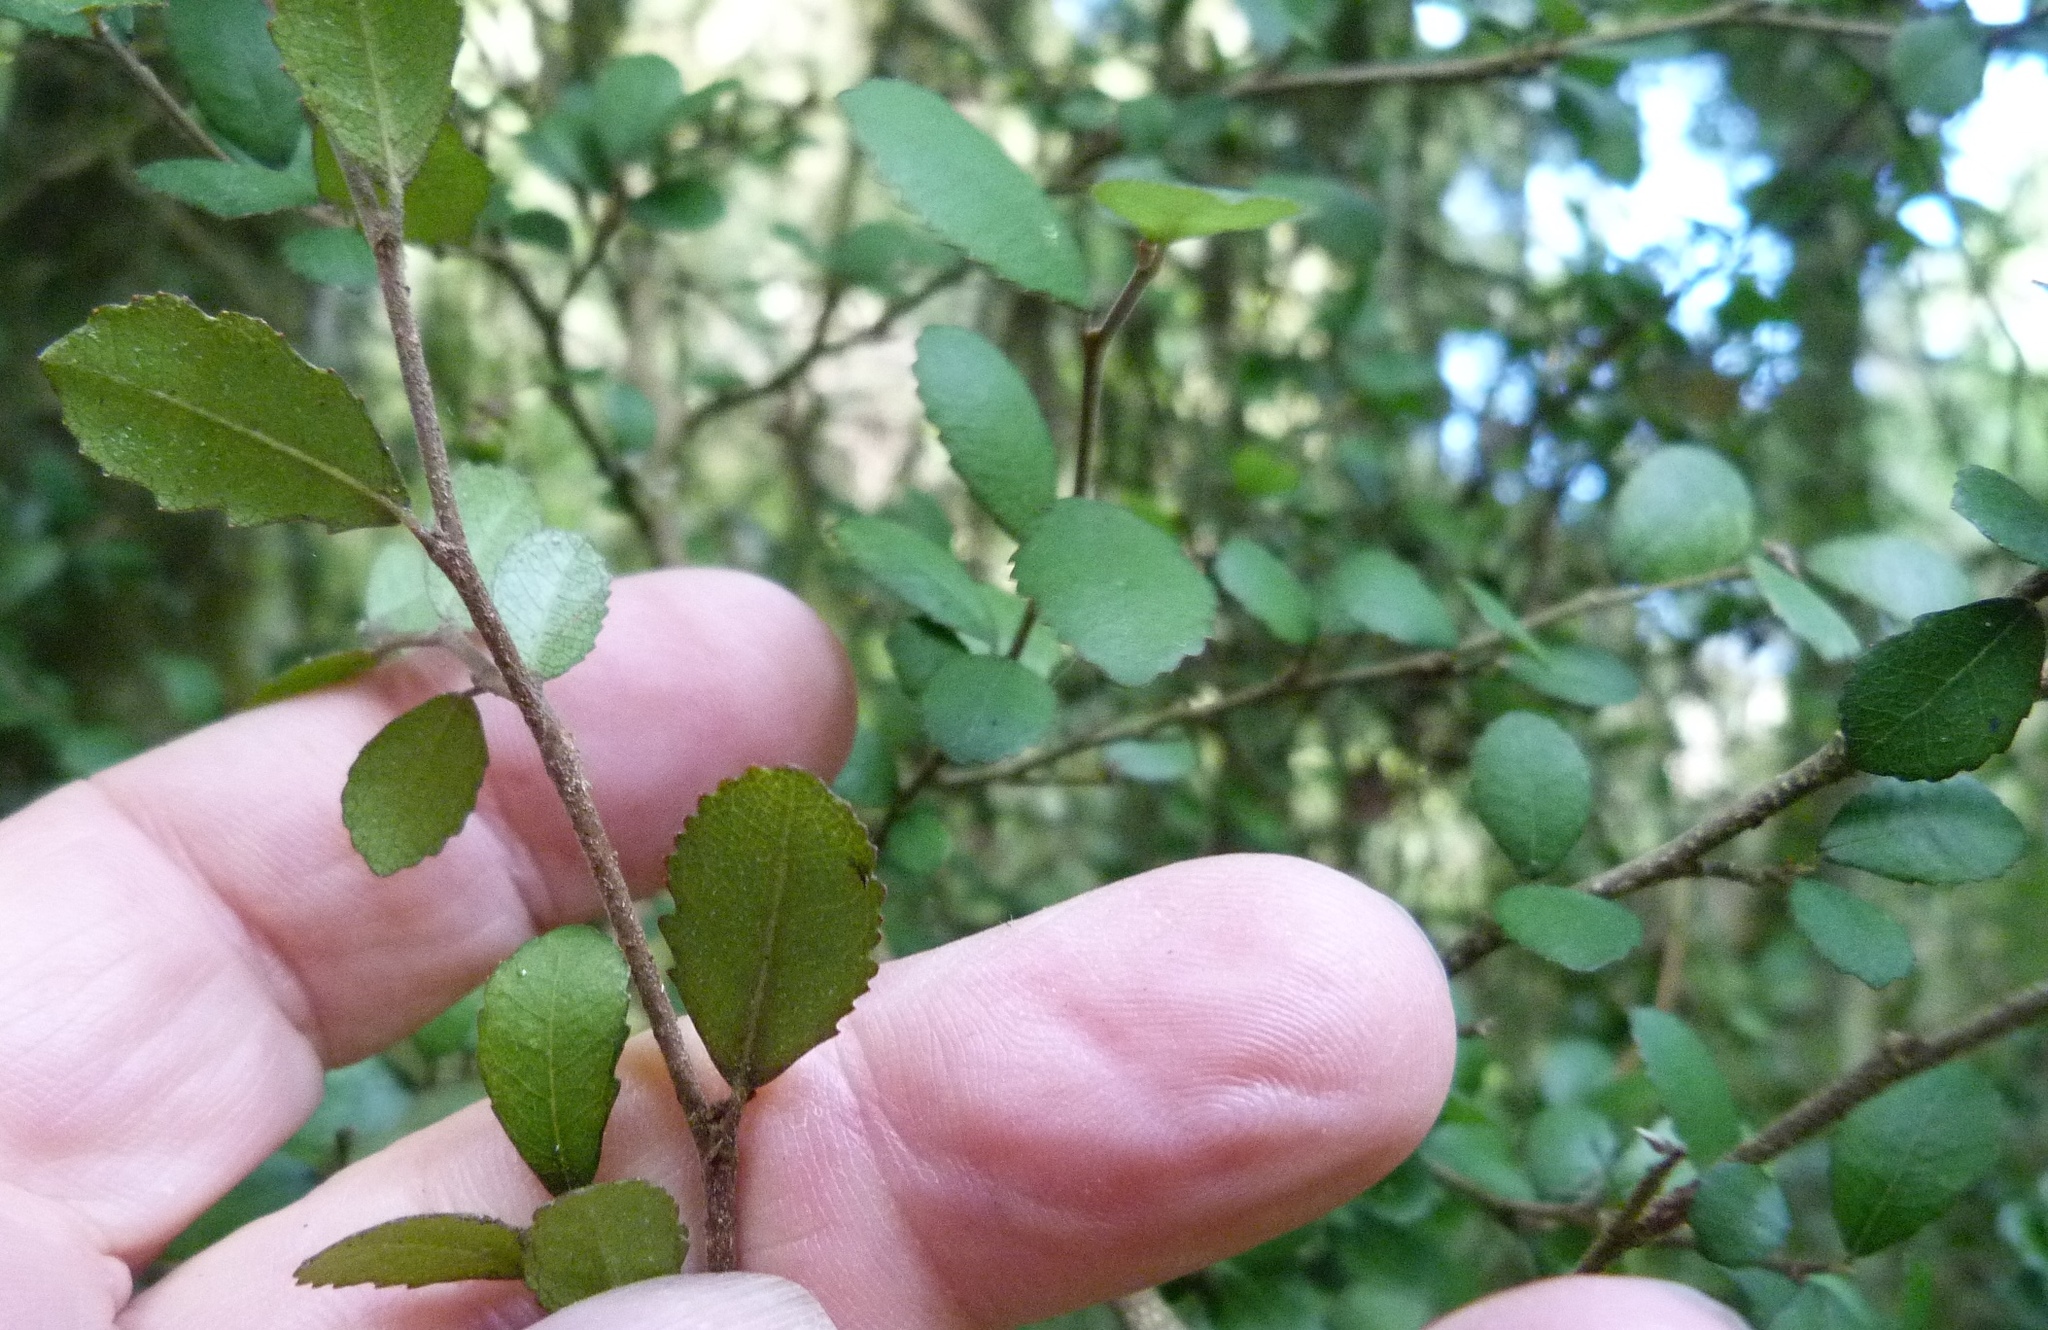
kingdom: Plantae
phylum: Tracheophyta
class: Magnoliopsida
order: Rosales
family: Moraceae
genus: Paratrophis
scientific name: Paratrophis microphylla
